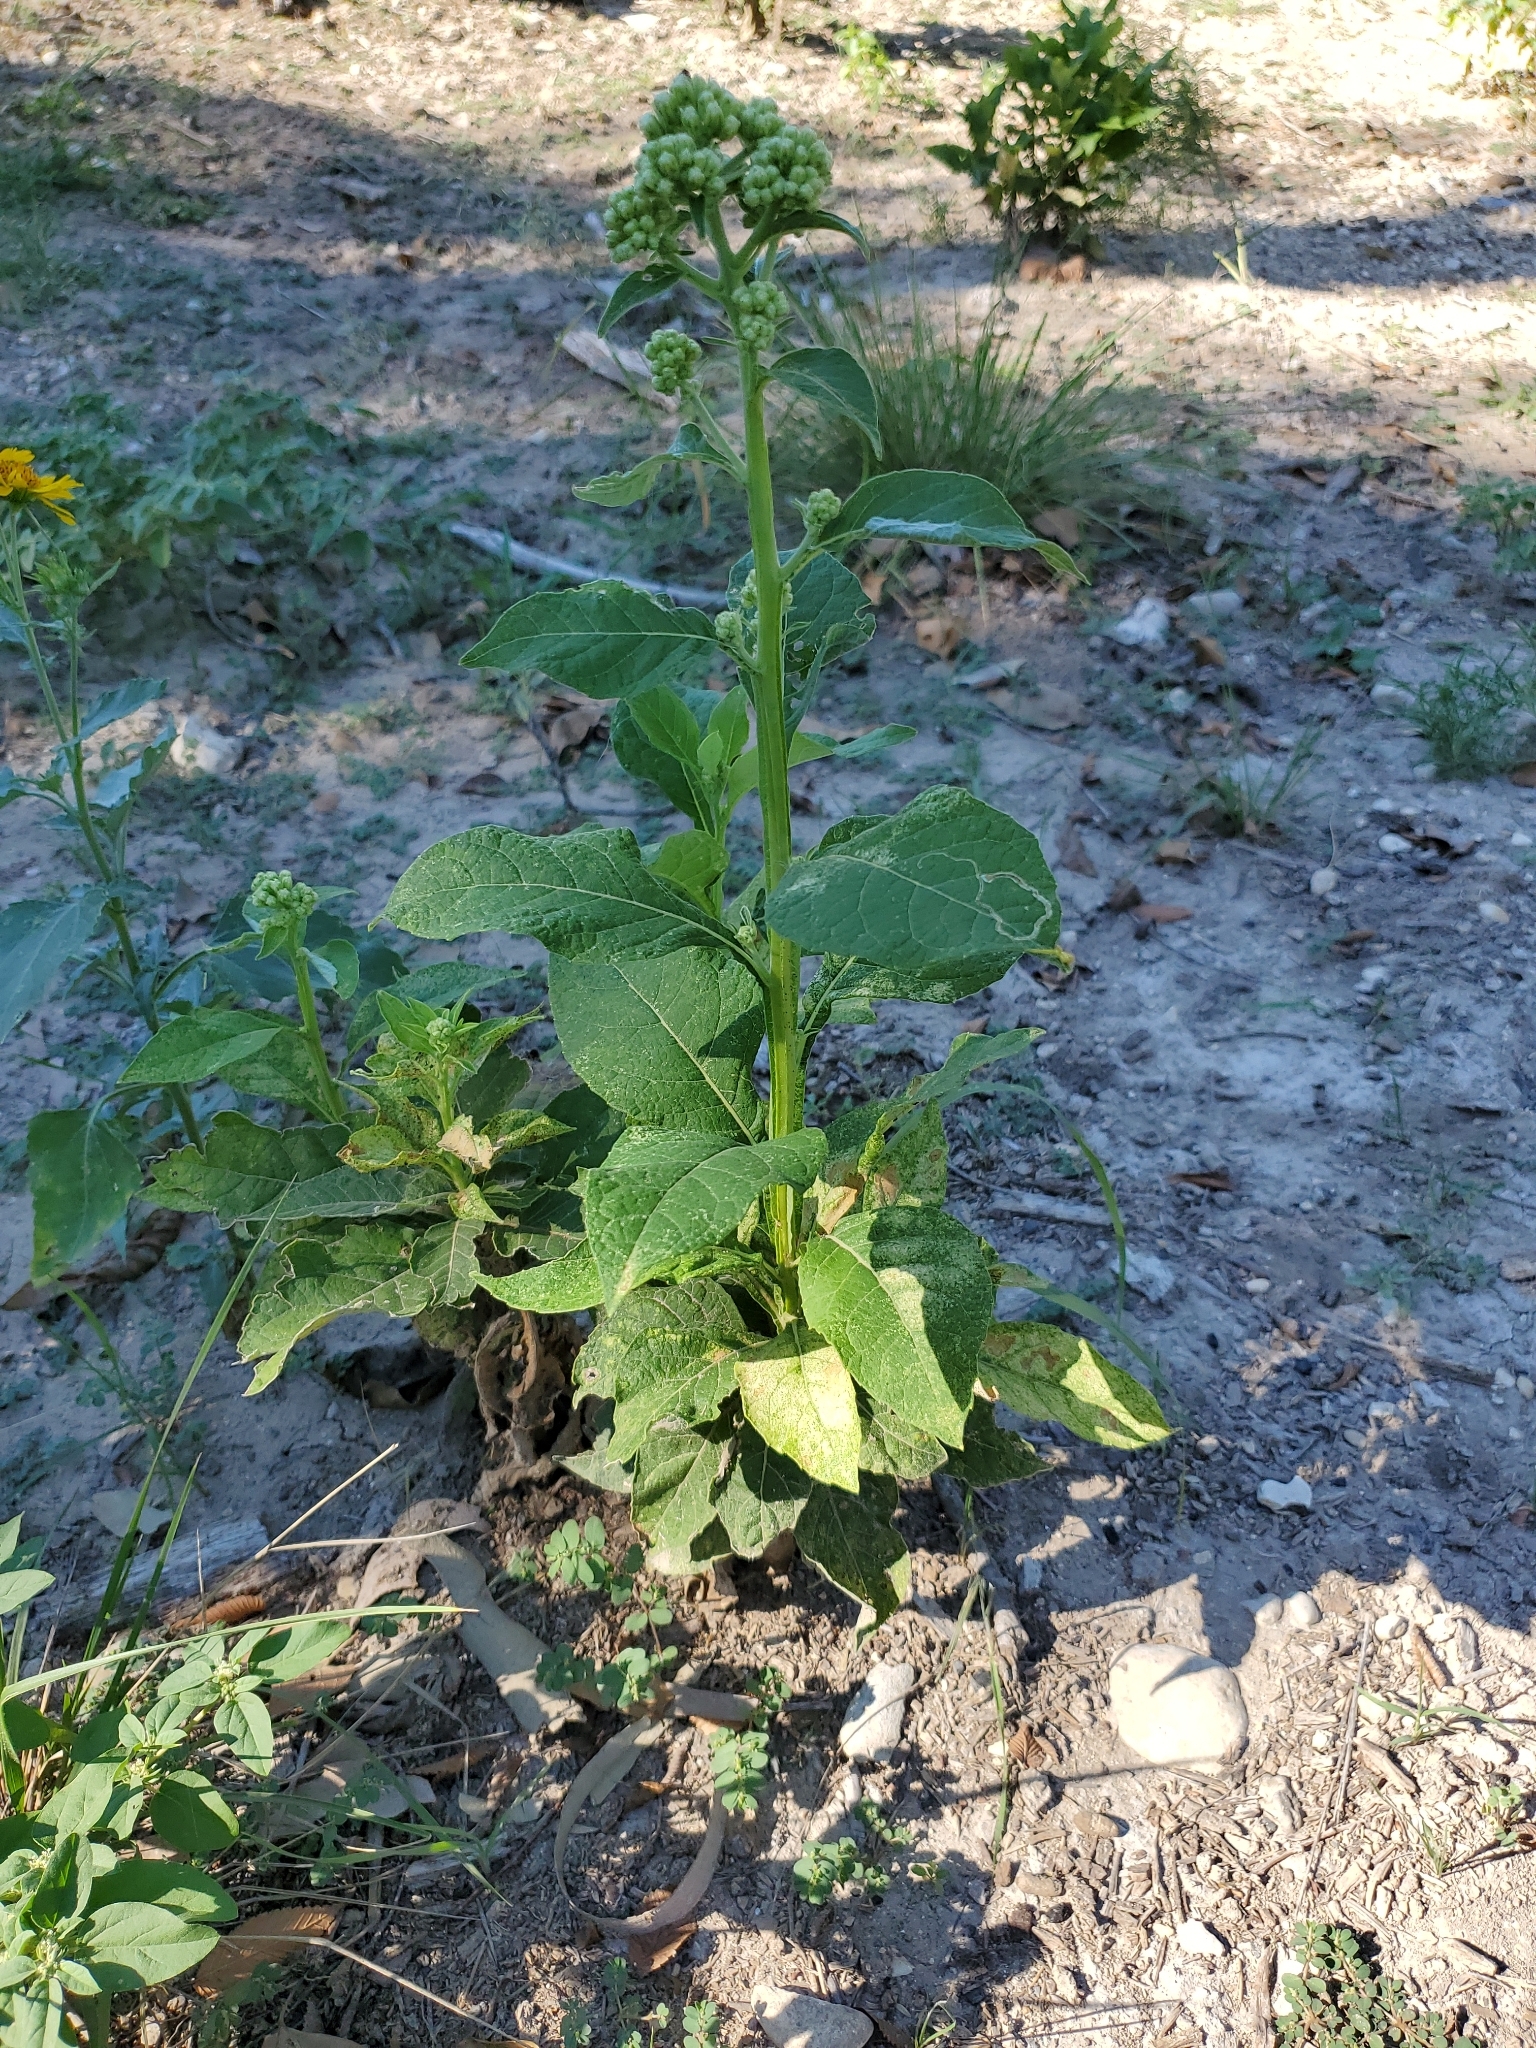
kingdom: Plantae
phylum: Tracheophyta
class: Magnoliopsida
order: Asterales
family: Asteraceae
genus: Verbesina
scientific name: Verbesina virginica
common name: Frostweed
